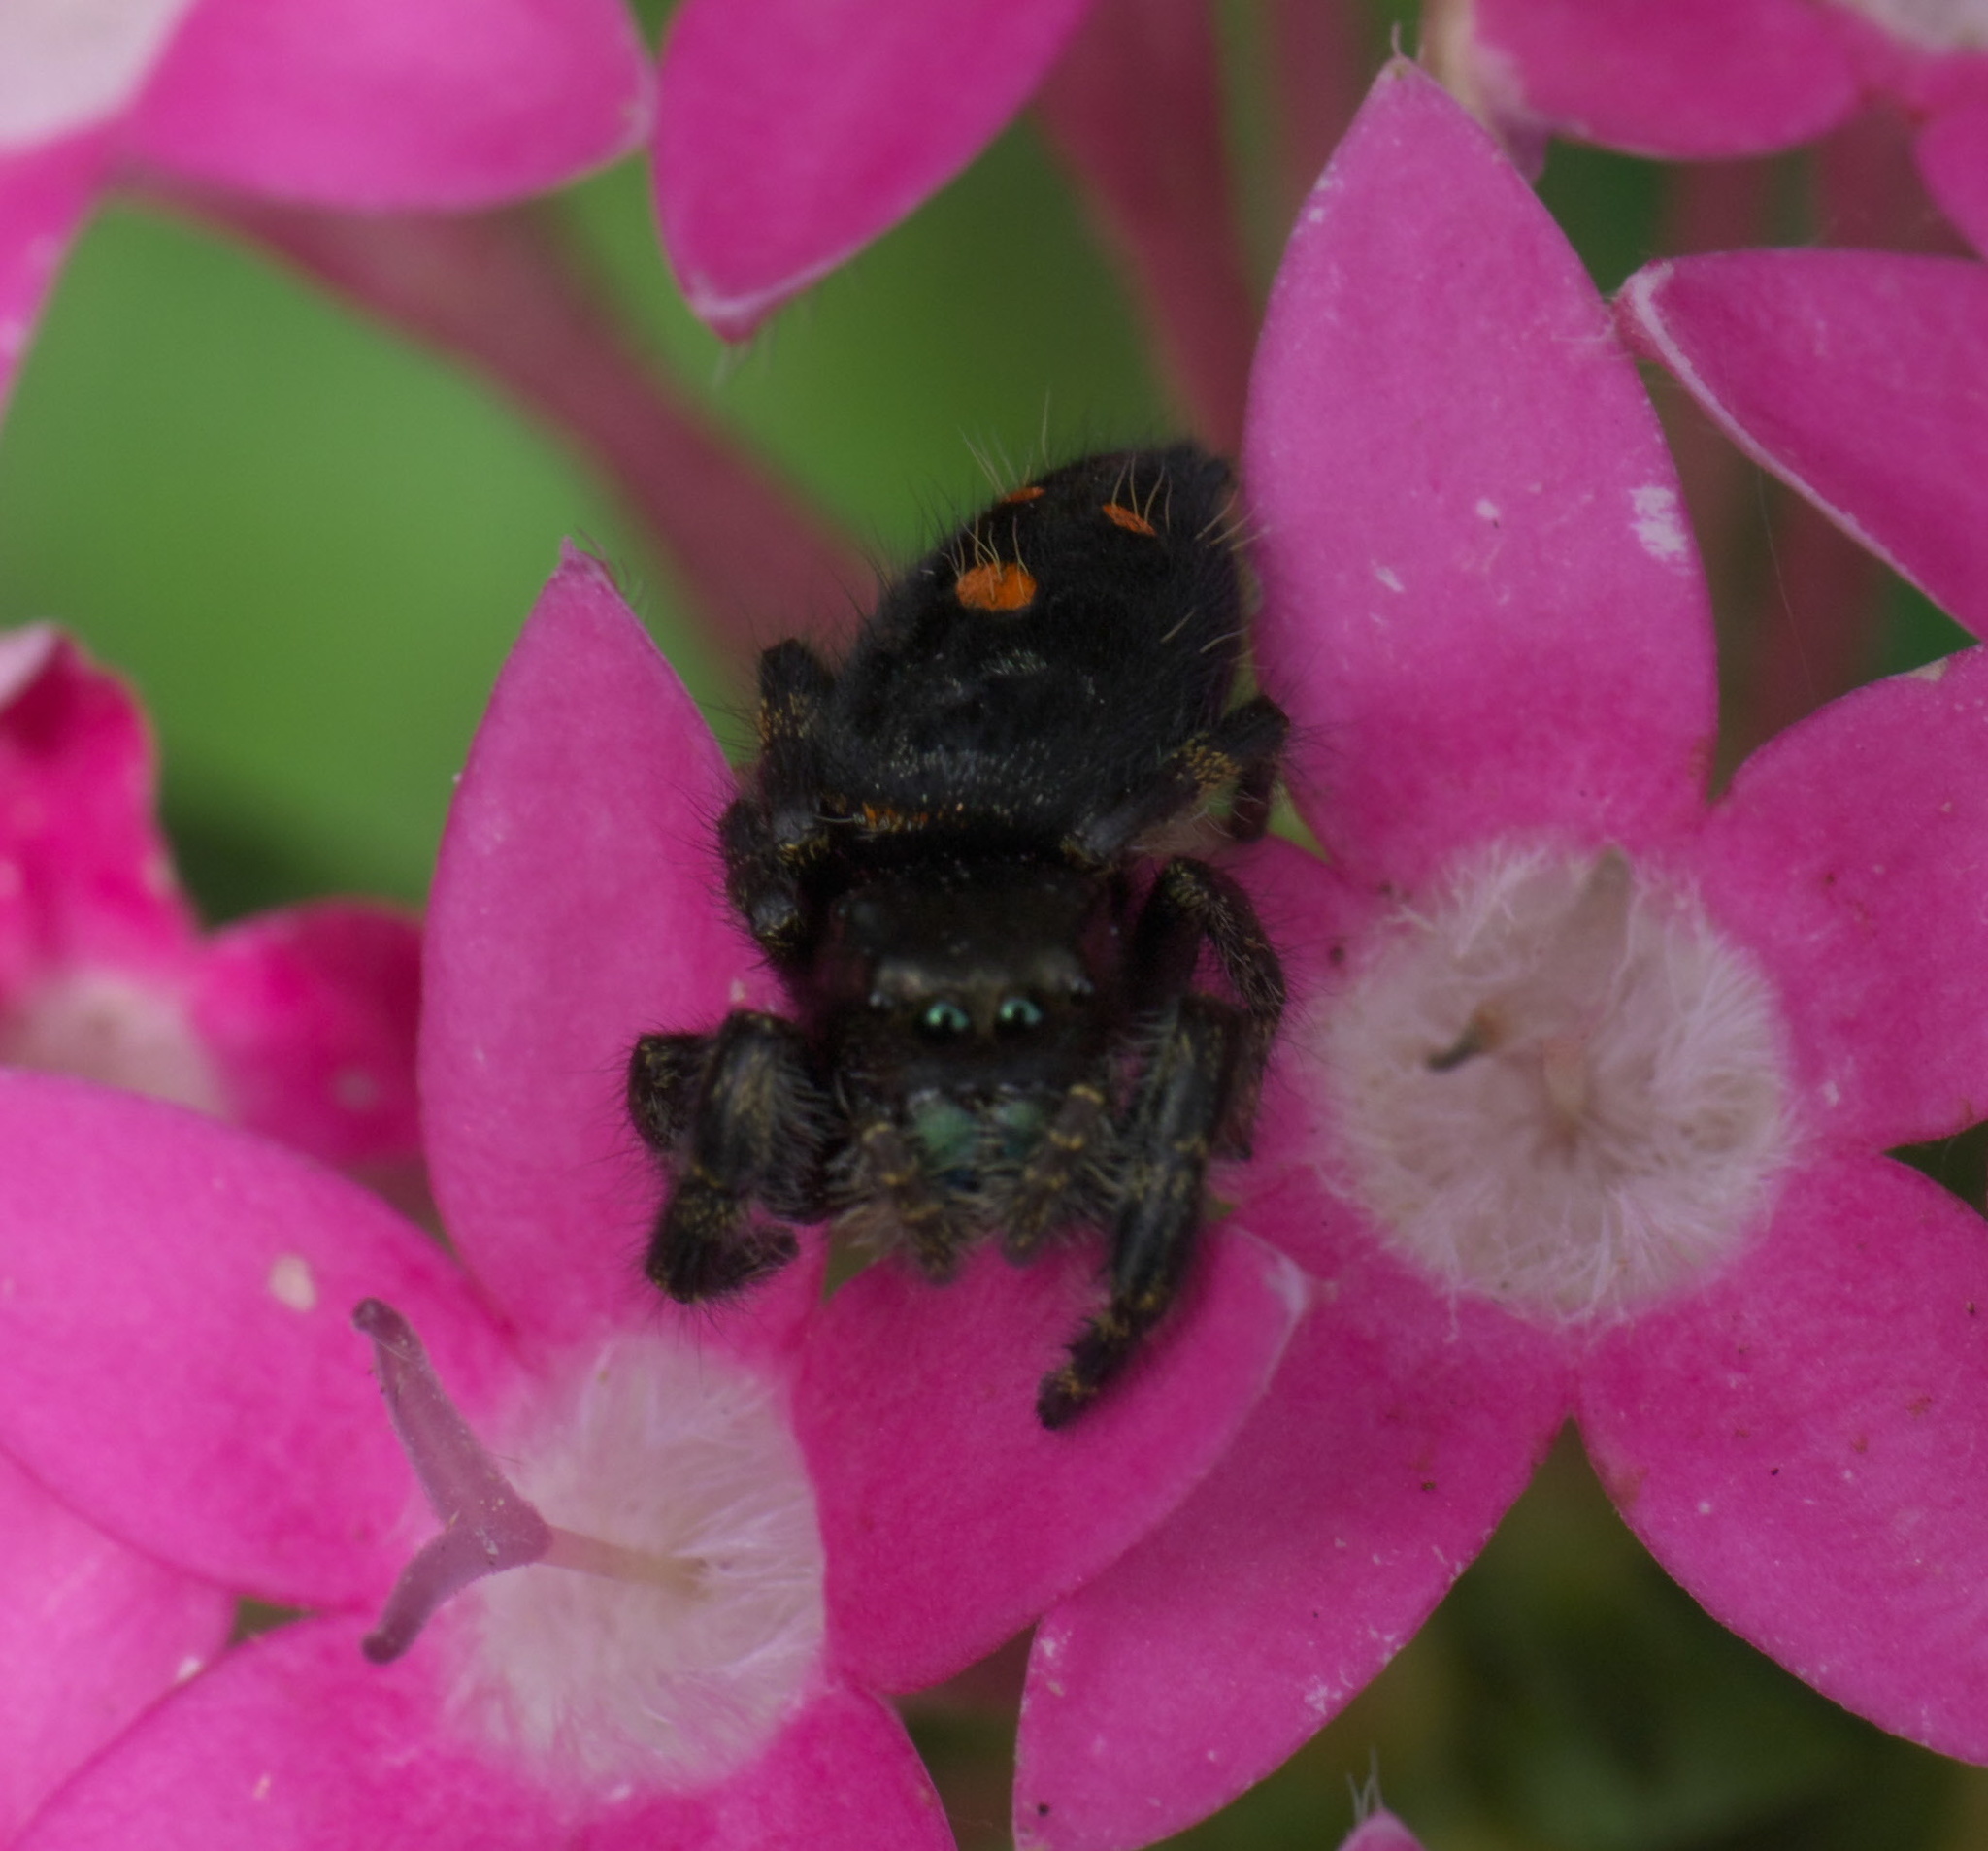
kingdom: Animalia
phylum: Arthropoda
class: Arachnida
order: Araneae
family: Salticidae
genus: Phidippus
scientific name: Phidippus audax
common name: Bold jumper
